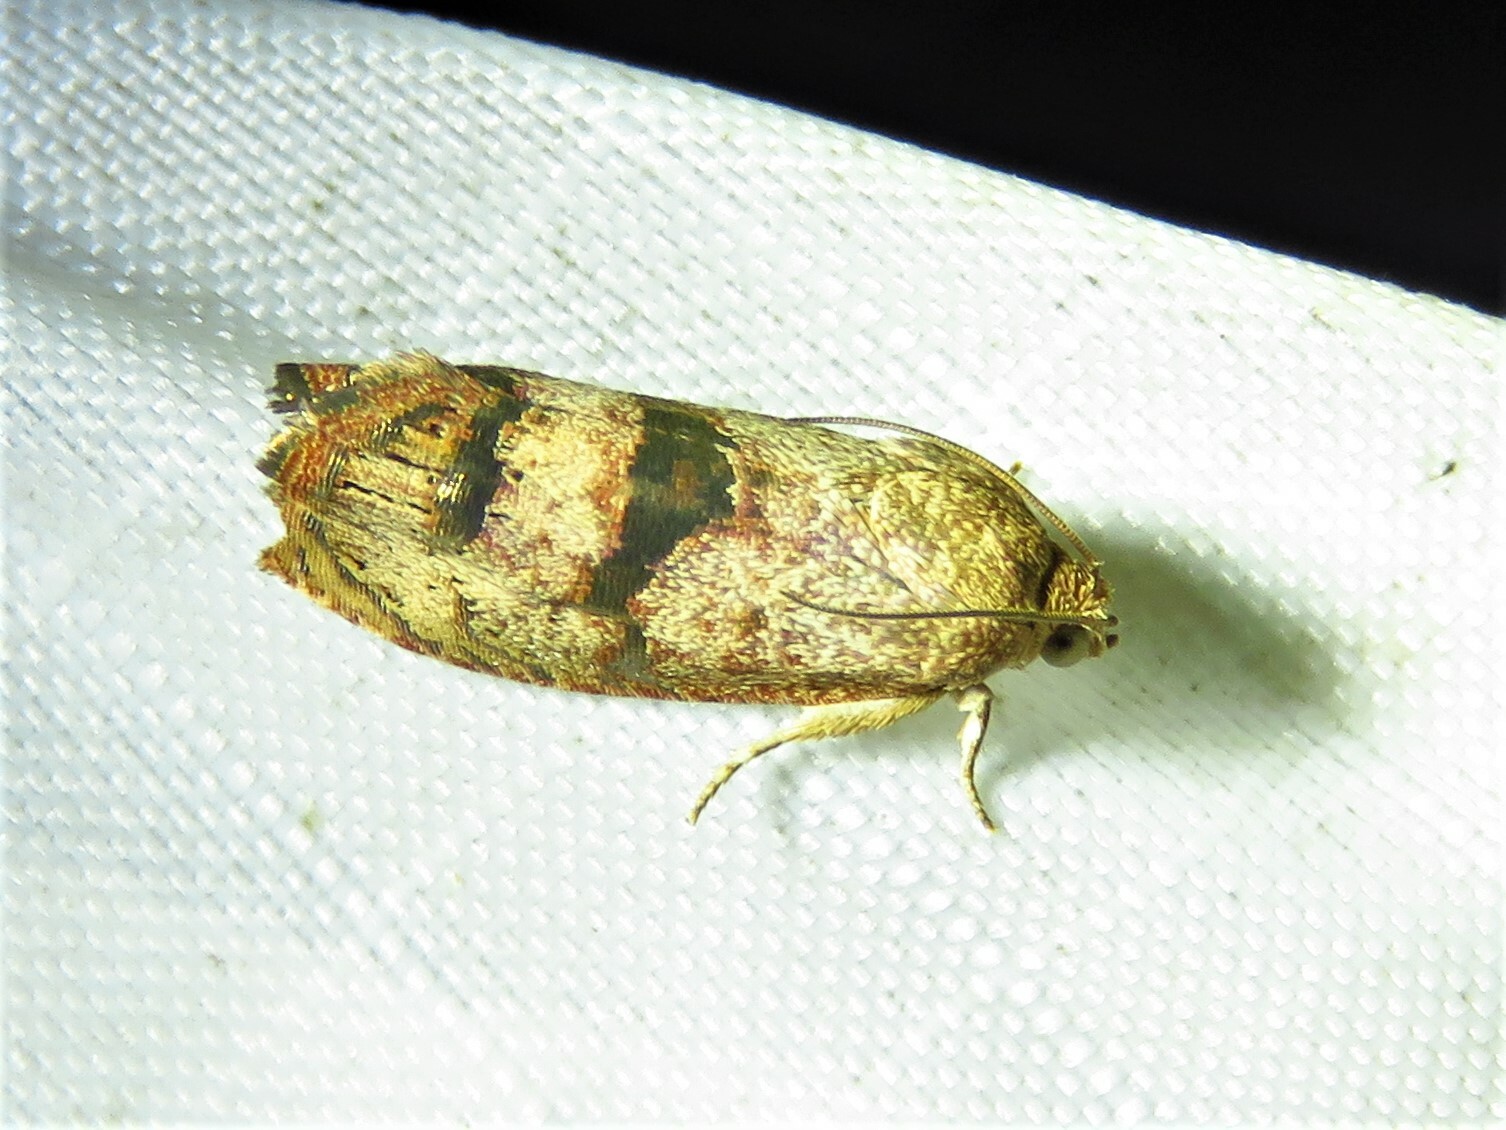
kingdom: Animalia
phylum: Arthropoda
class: Insecta
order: Lepidoptera
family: Tortricidae
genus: Cydia
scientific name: Cydia latiferreana
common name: Filbertworm moth
